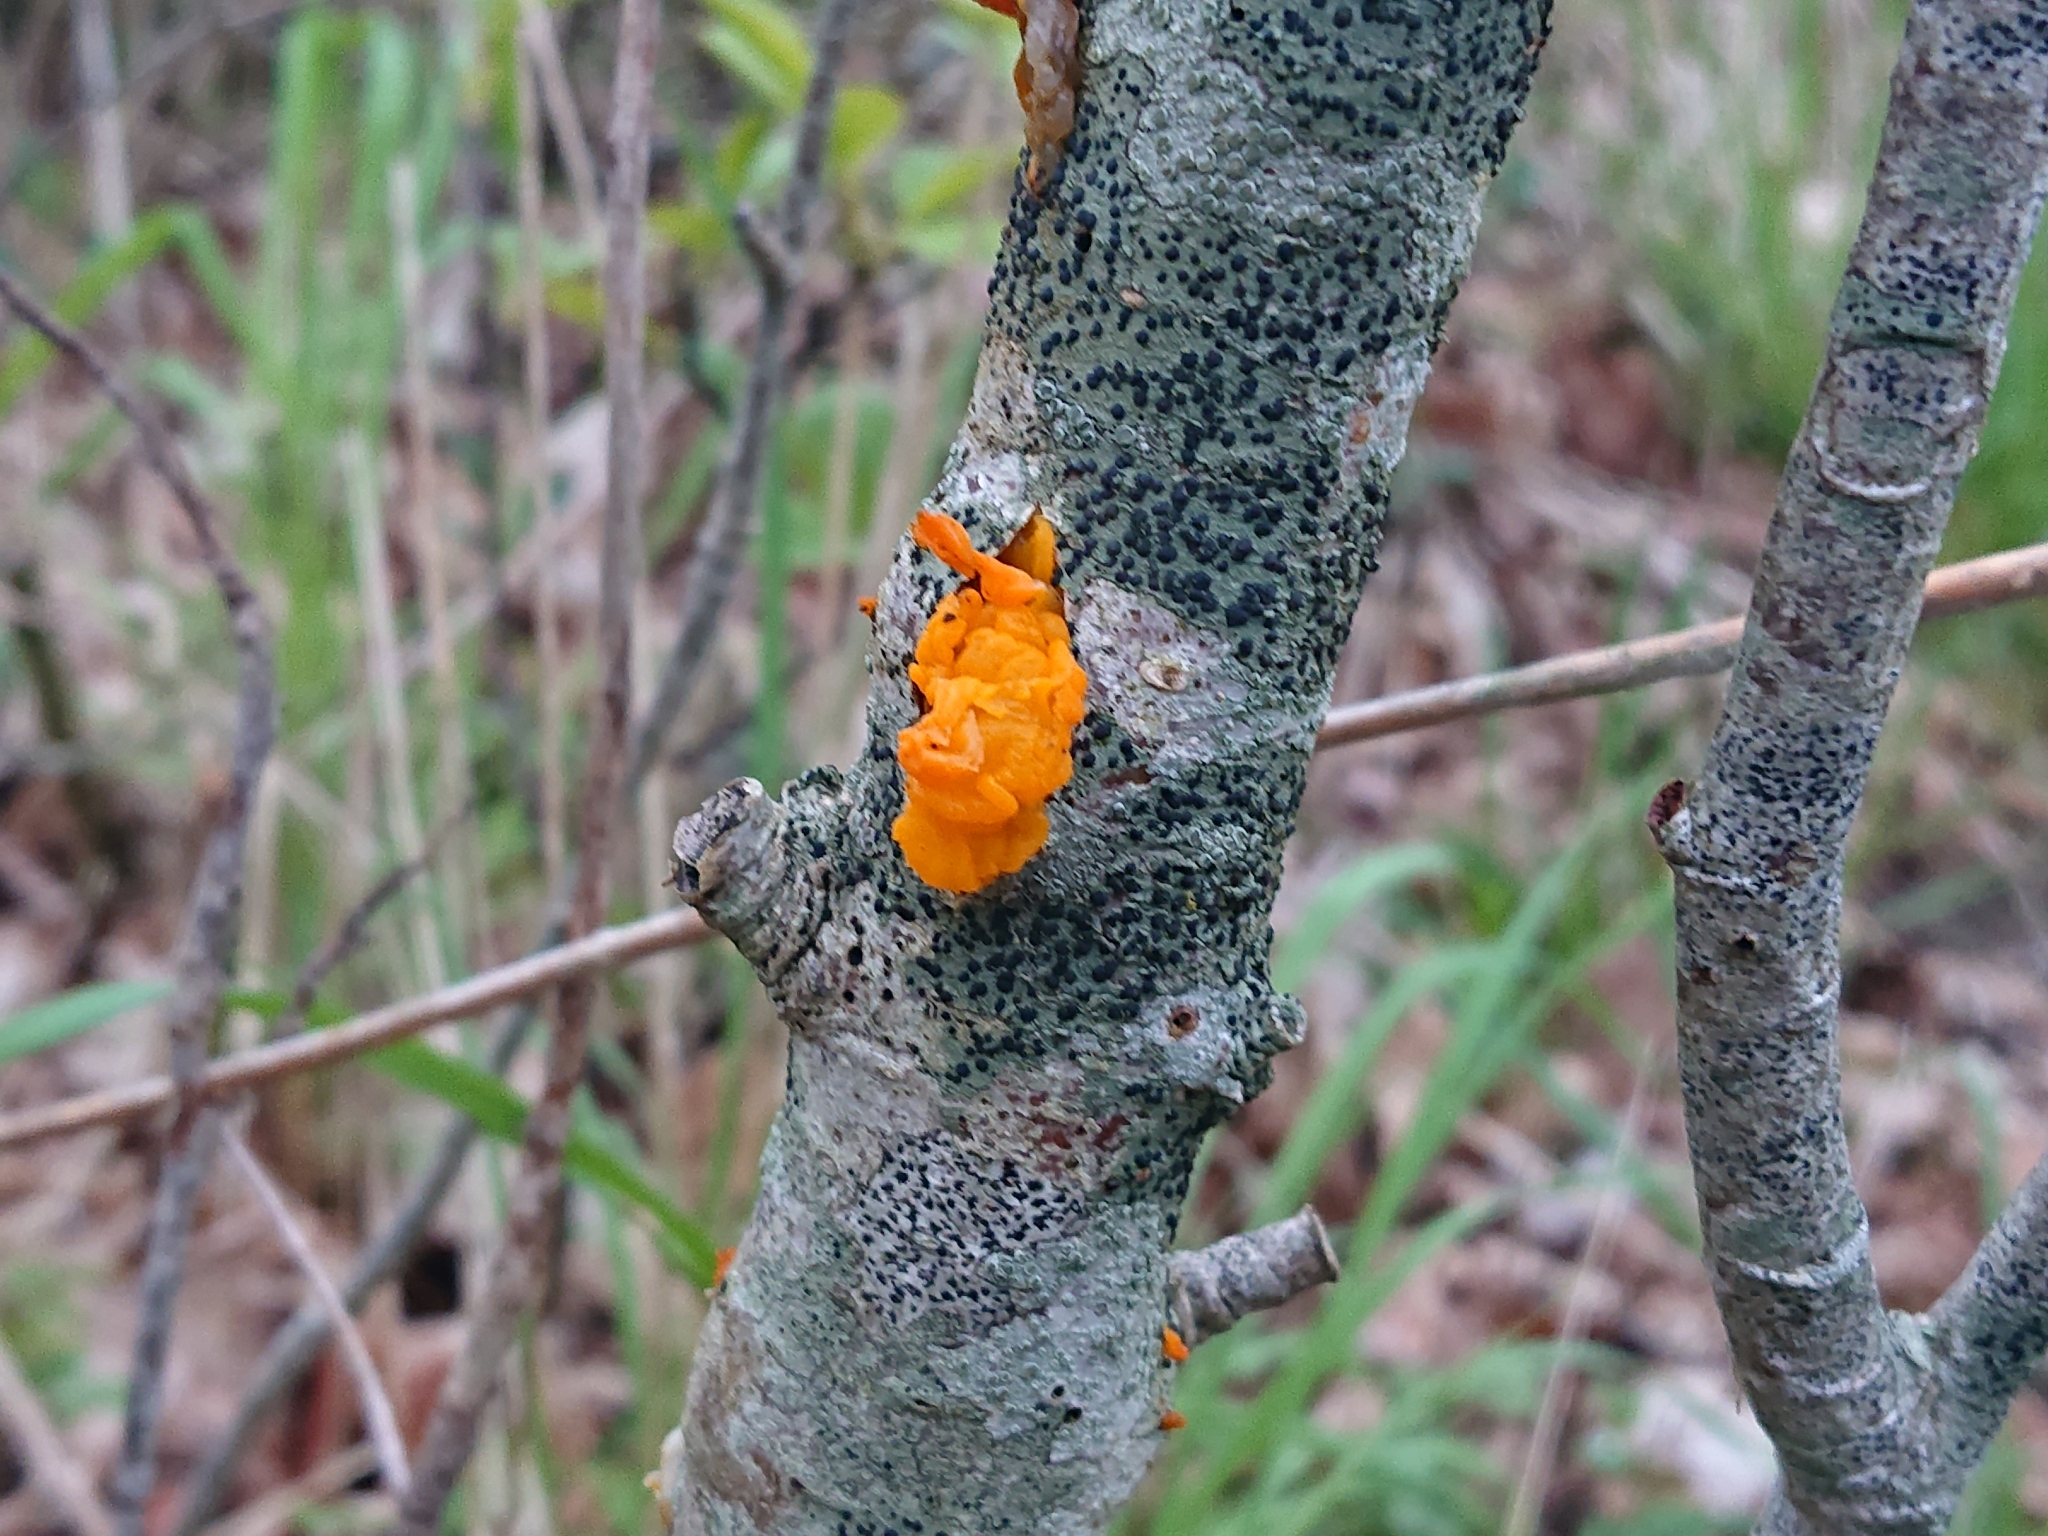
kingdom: Fungi
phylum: Basidiomycota
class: Tremellomycetes
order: Tremellales
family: Tremellaceae
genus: Tremella
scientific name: Tremella mesenterica
